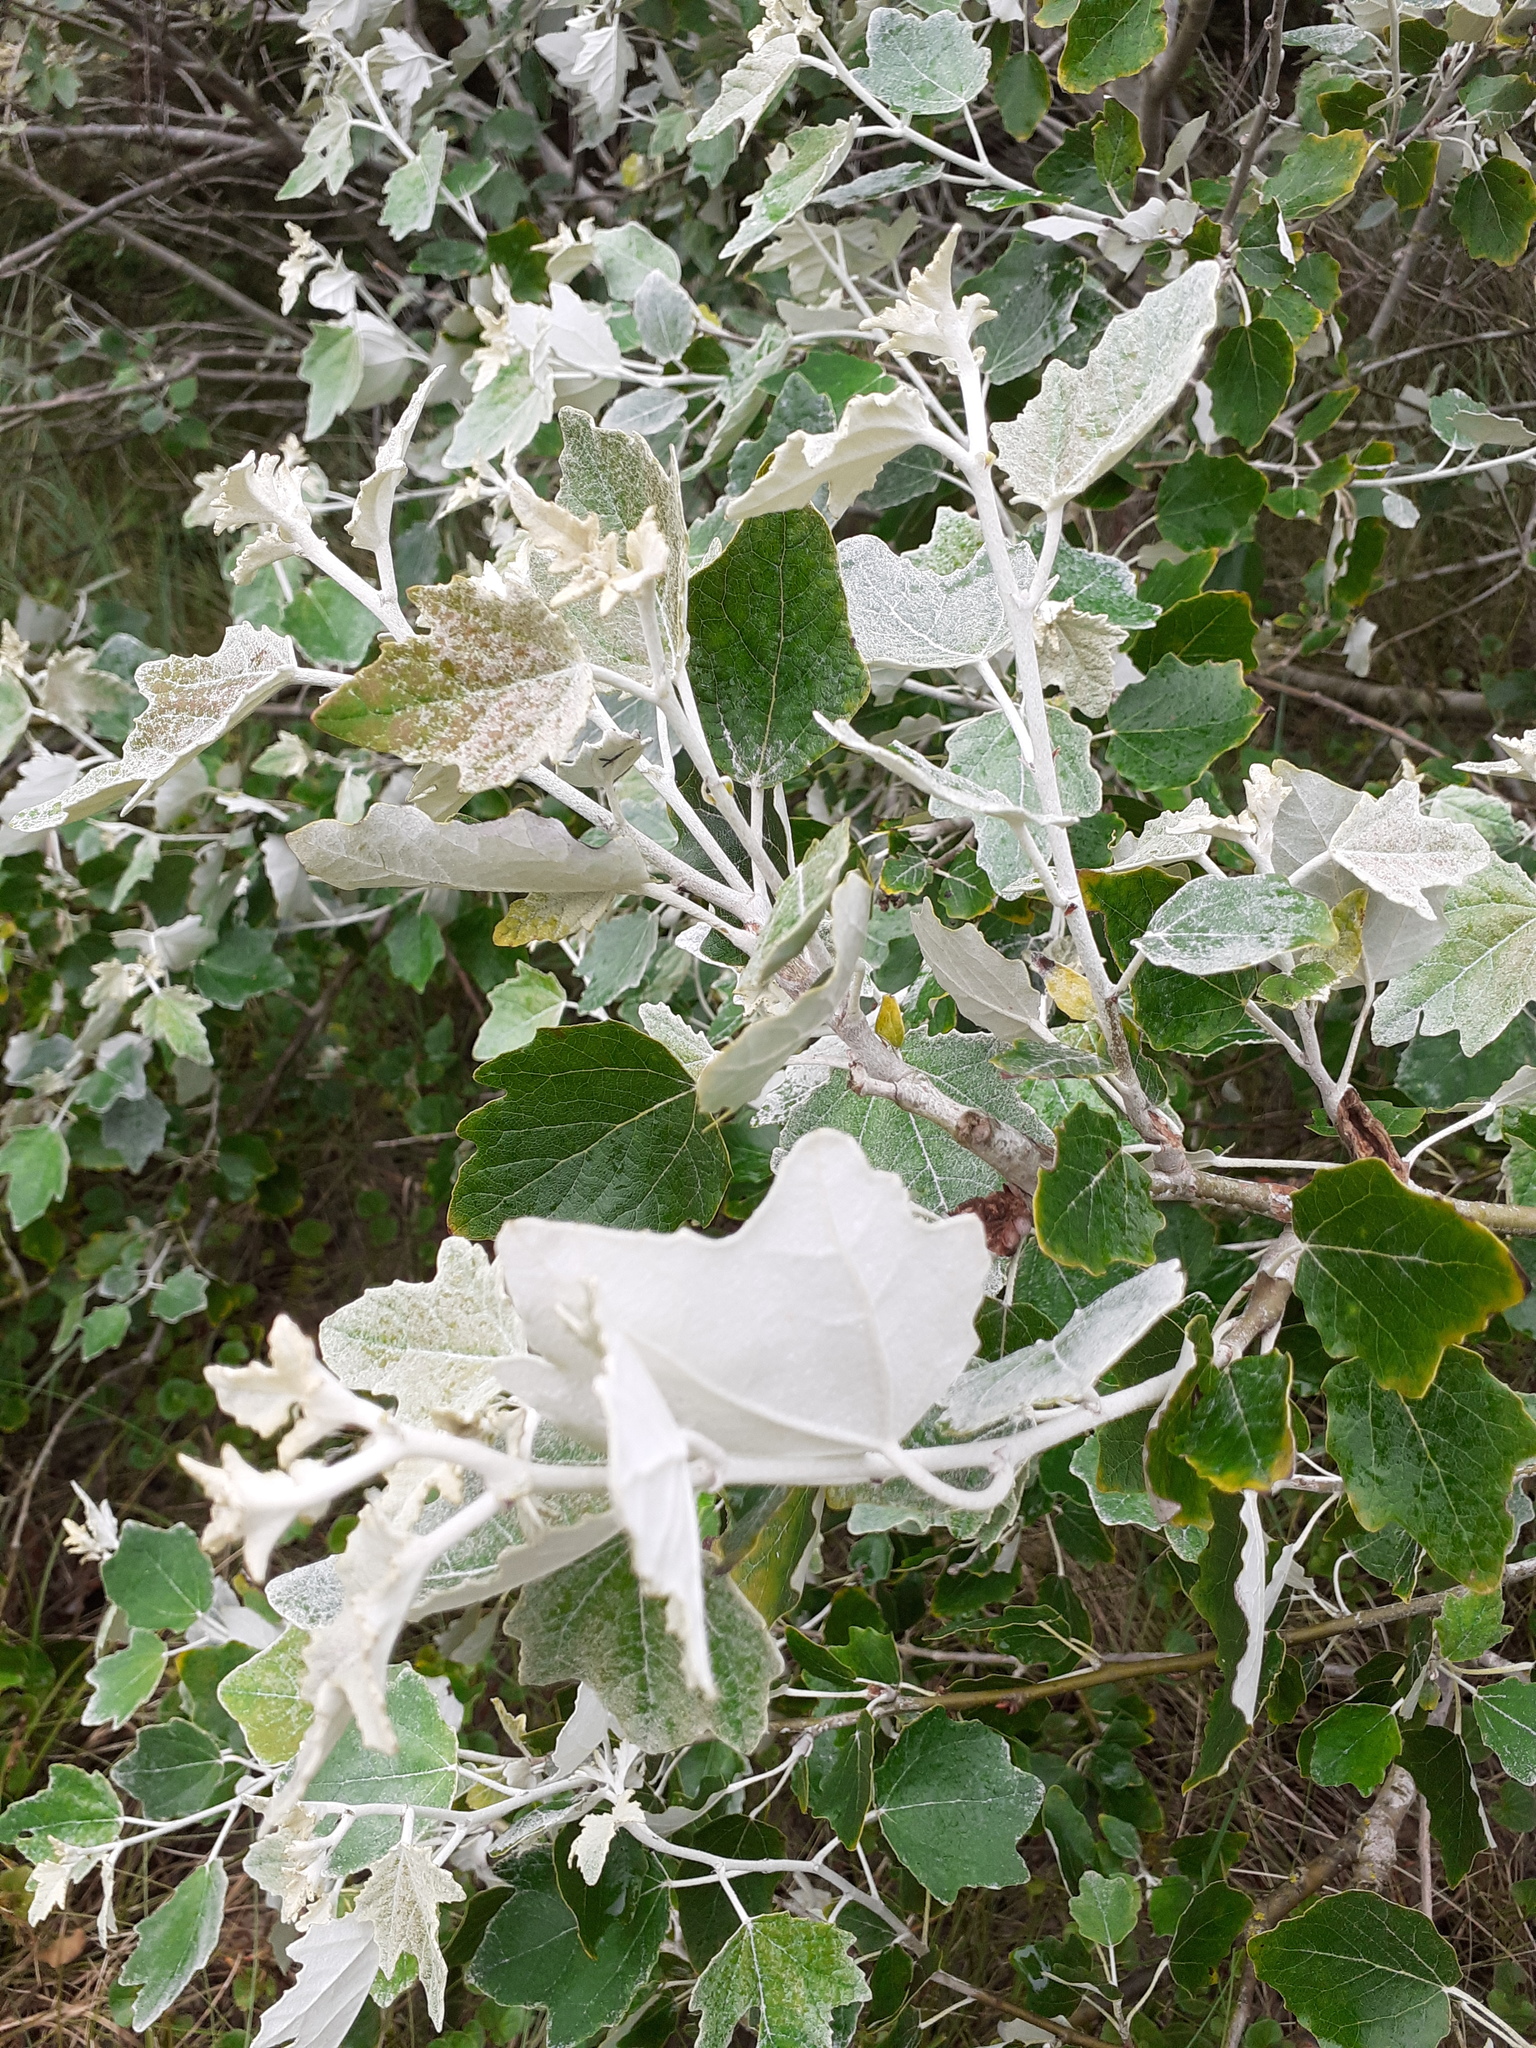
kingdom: Plantae
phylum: Tracheophyta
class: Magnoliopsida
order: Malpighiales
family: Salicaceae
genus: Populus
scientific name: Populus alba
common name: White poplar
